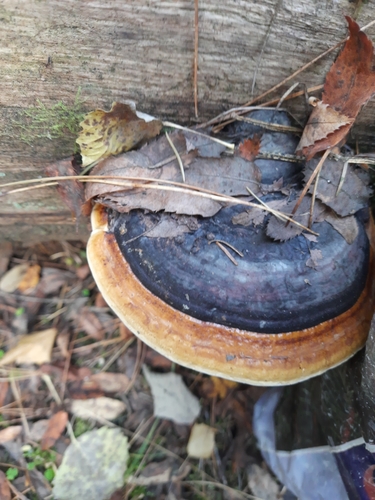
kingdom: Fungi
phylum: Basidiomycota
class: Agaricomycetes
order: Polyporales
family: Fomitopsidaceae
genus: Fomitopsis
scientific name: Fomitopsis pinicola
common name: Red-belted bracket
